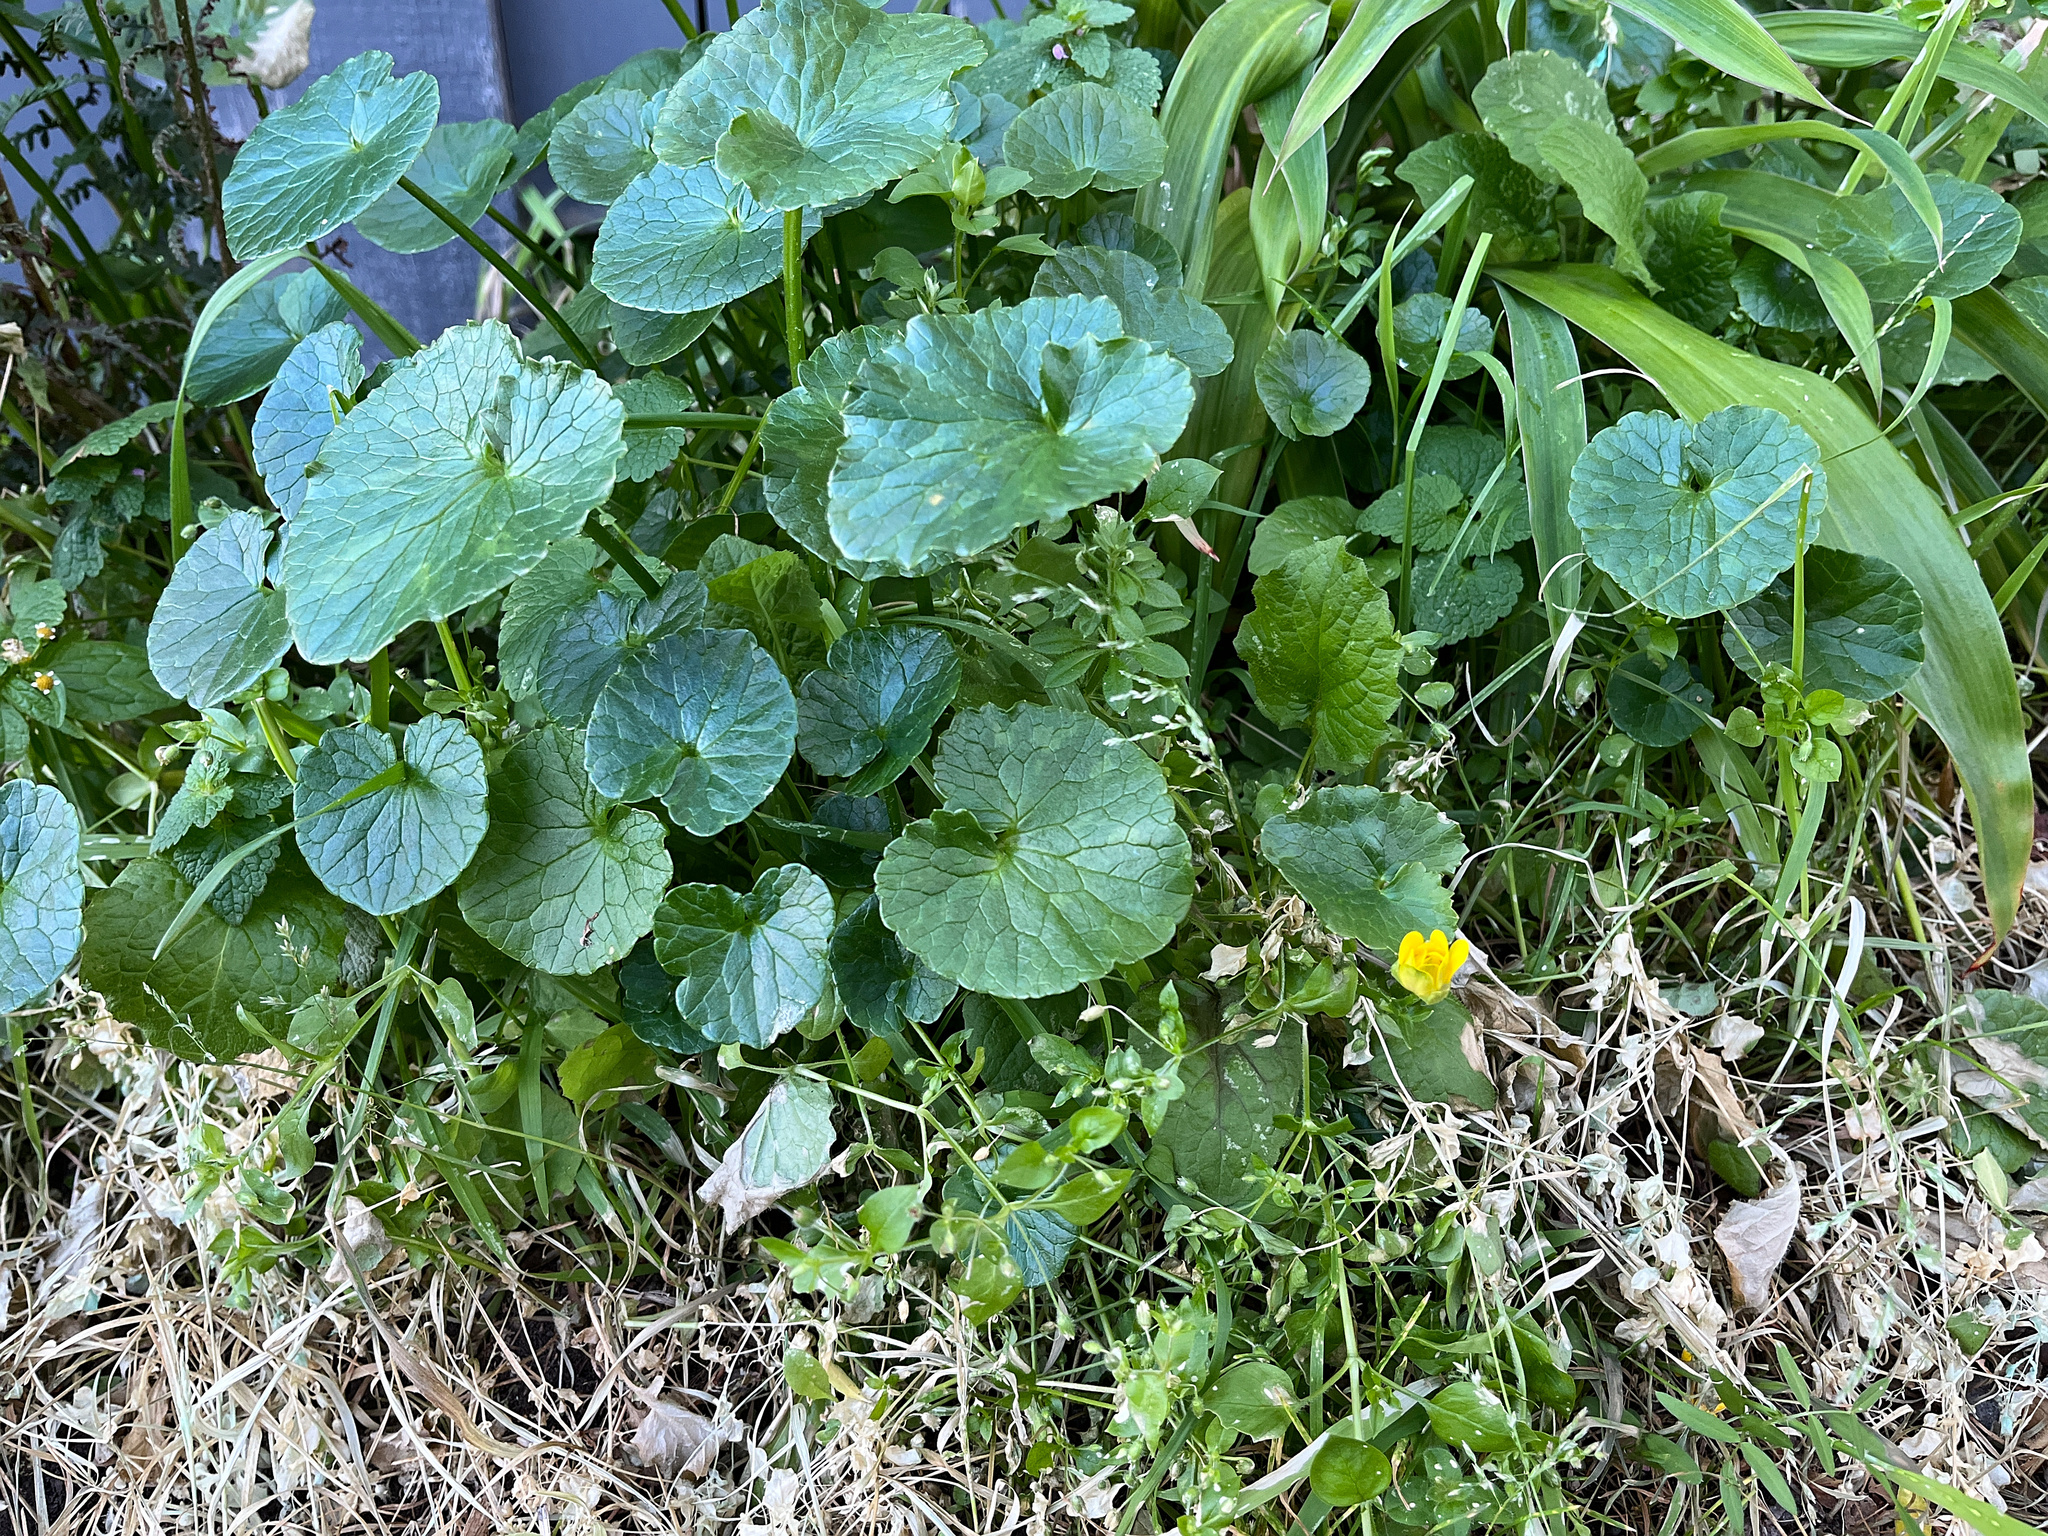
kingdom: Plantae
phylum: Tracheophyta
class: Magnoliopsida
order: Ranunculales
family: Ranunculaceae
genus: Ficaria
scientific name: Ficaria verna
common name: Lesser celandine
